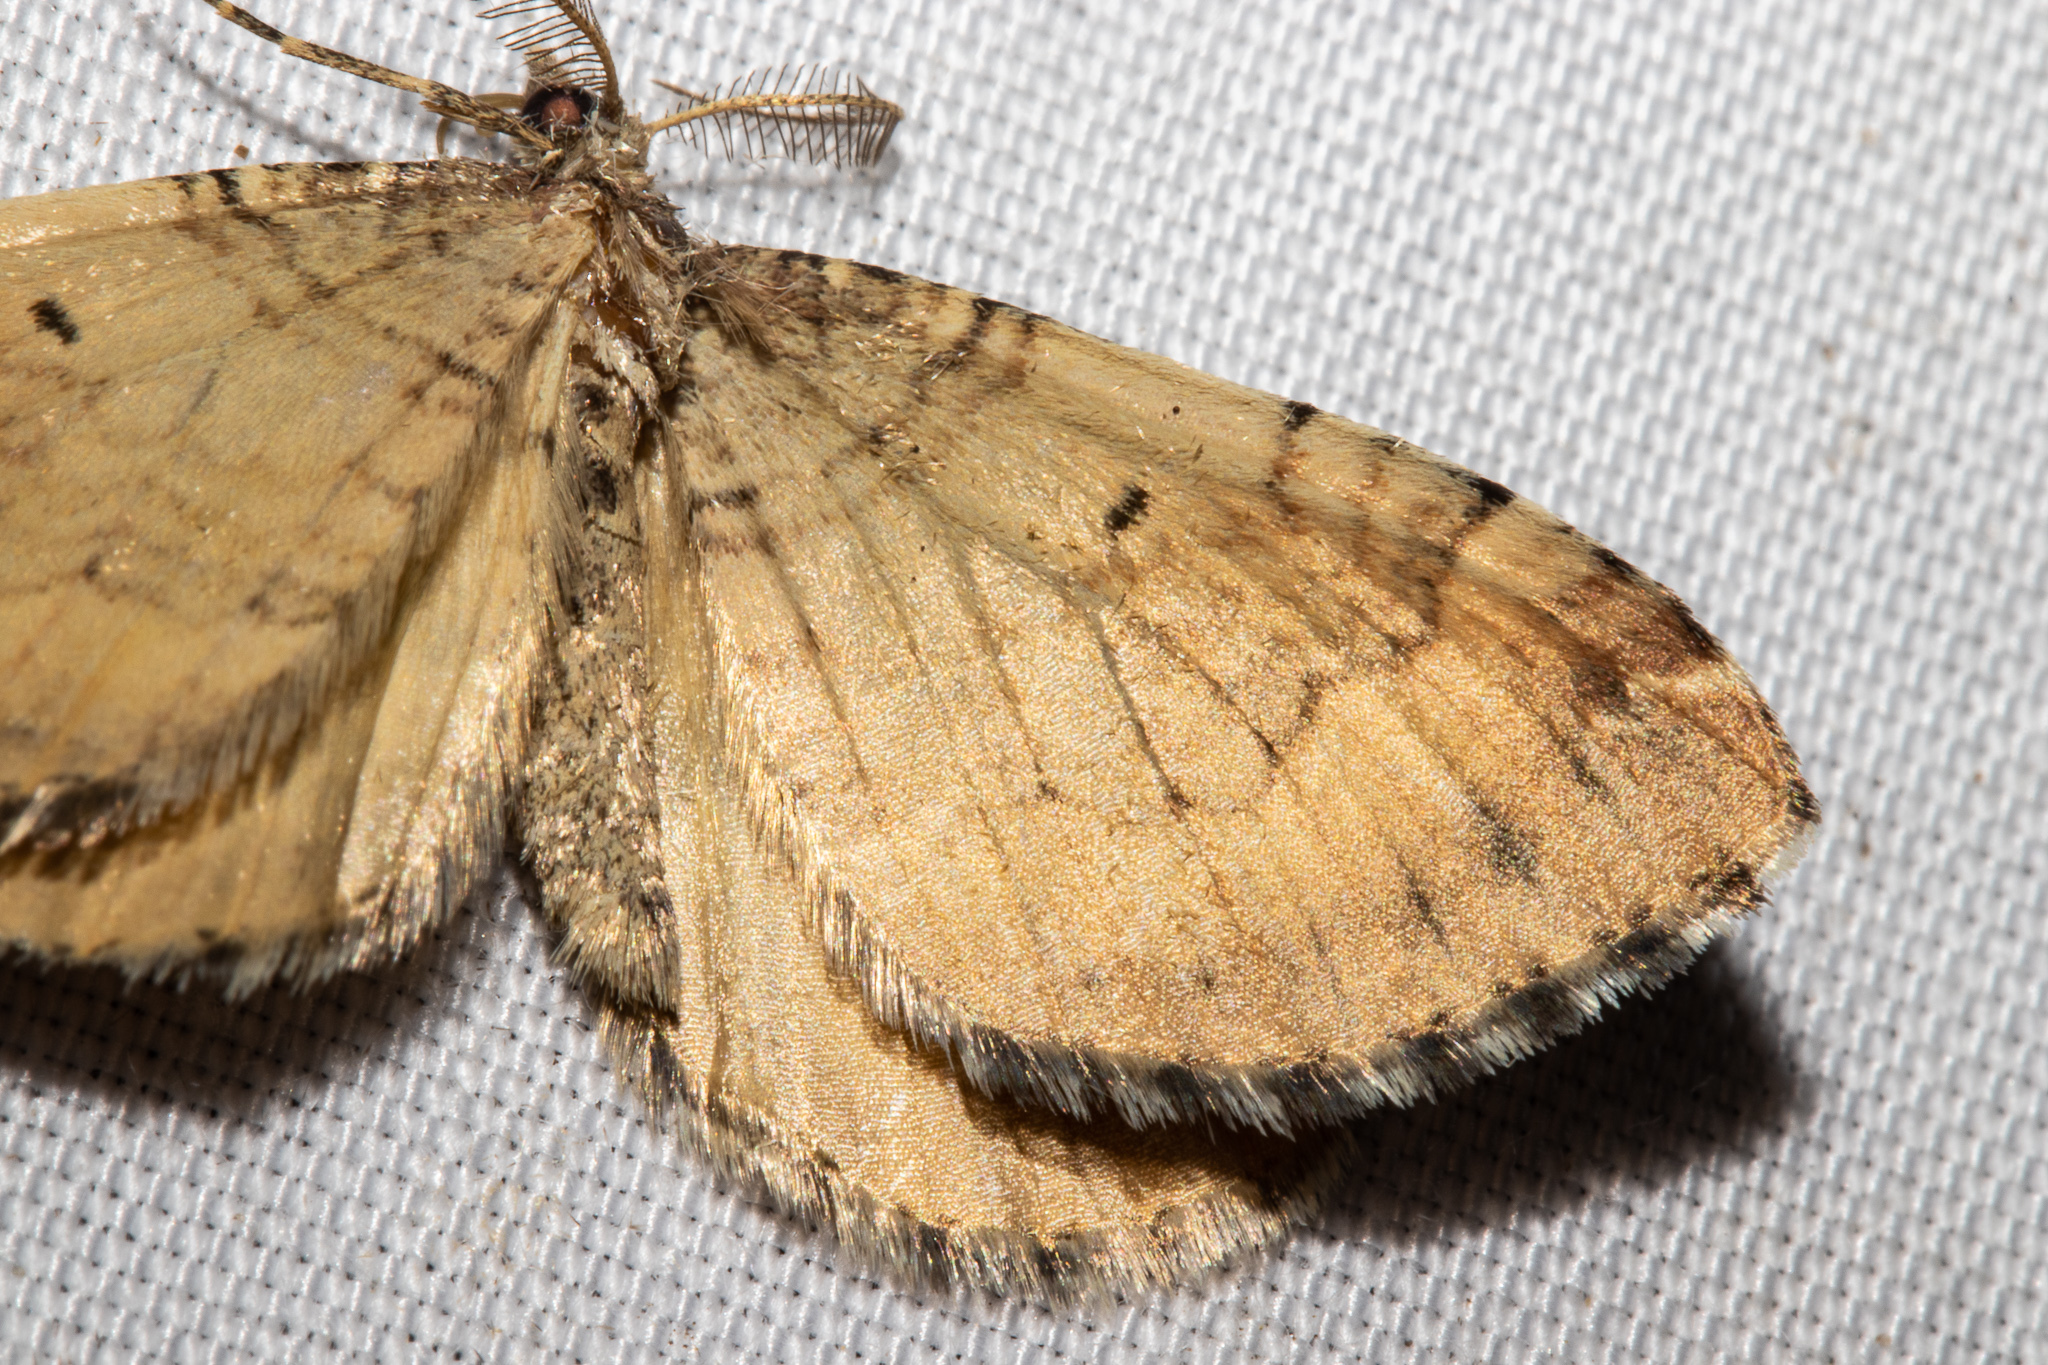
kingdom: Animalia
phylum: Arthropoda
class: Insecta
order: Lepidoptera
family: Geometridae
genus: Asaphodes
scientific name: Asaphodes aegrota
